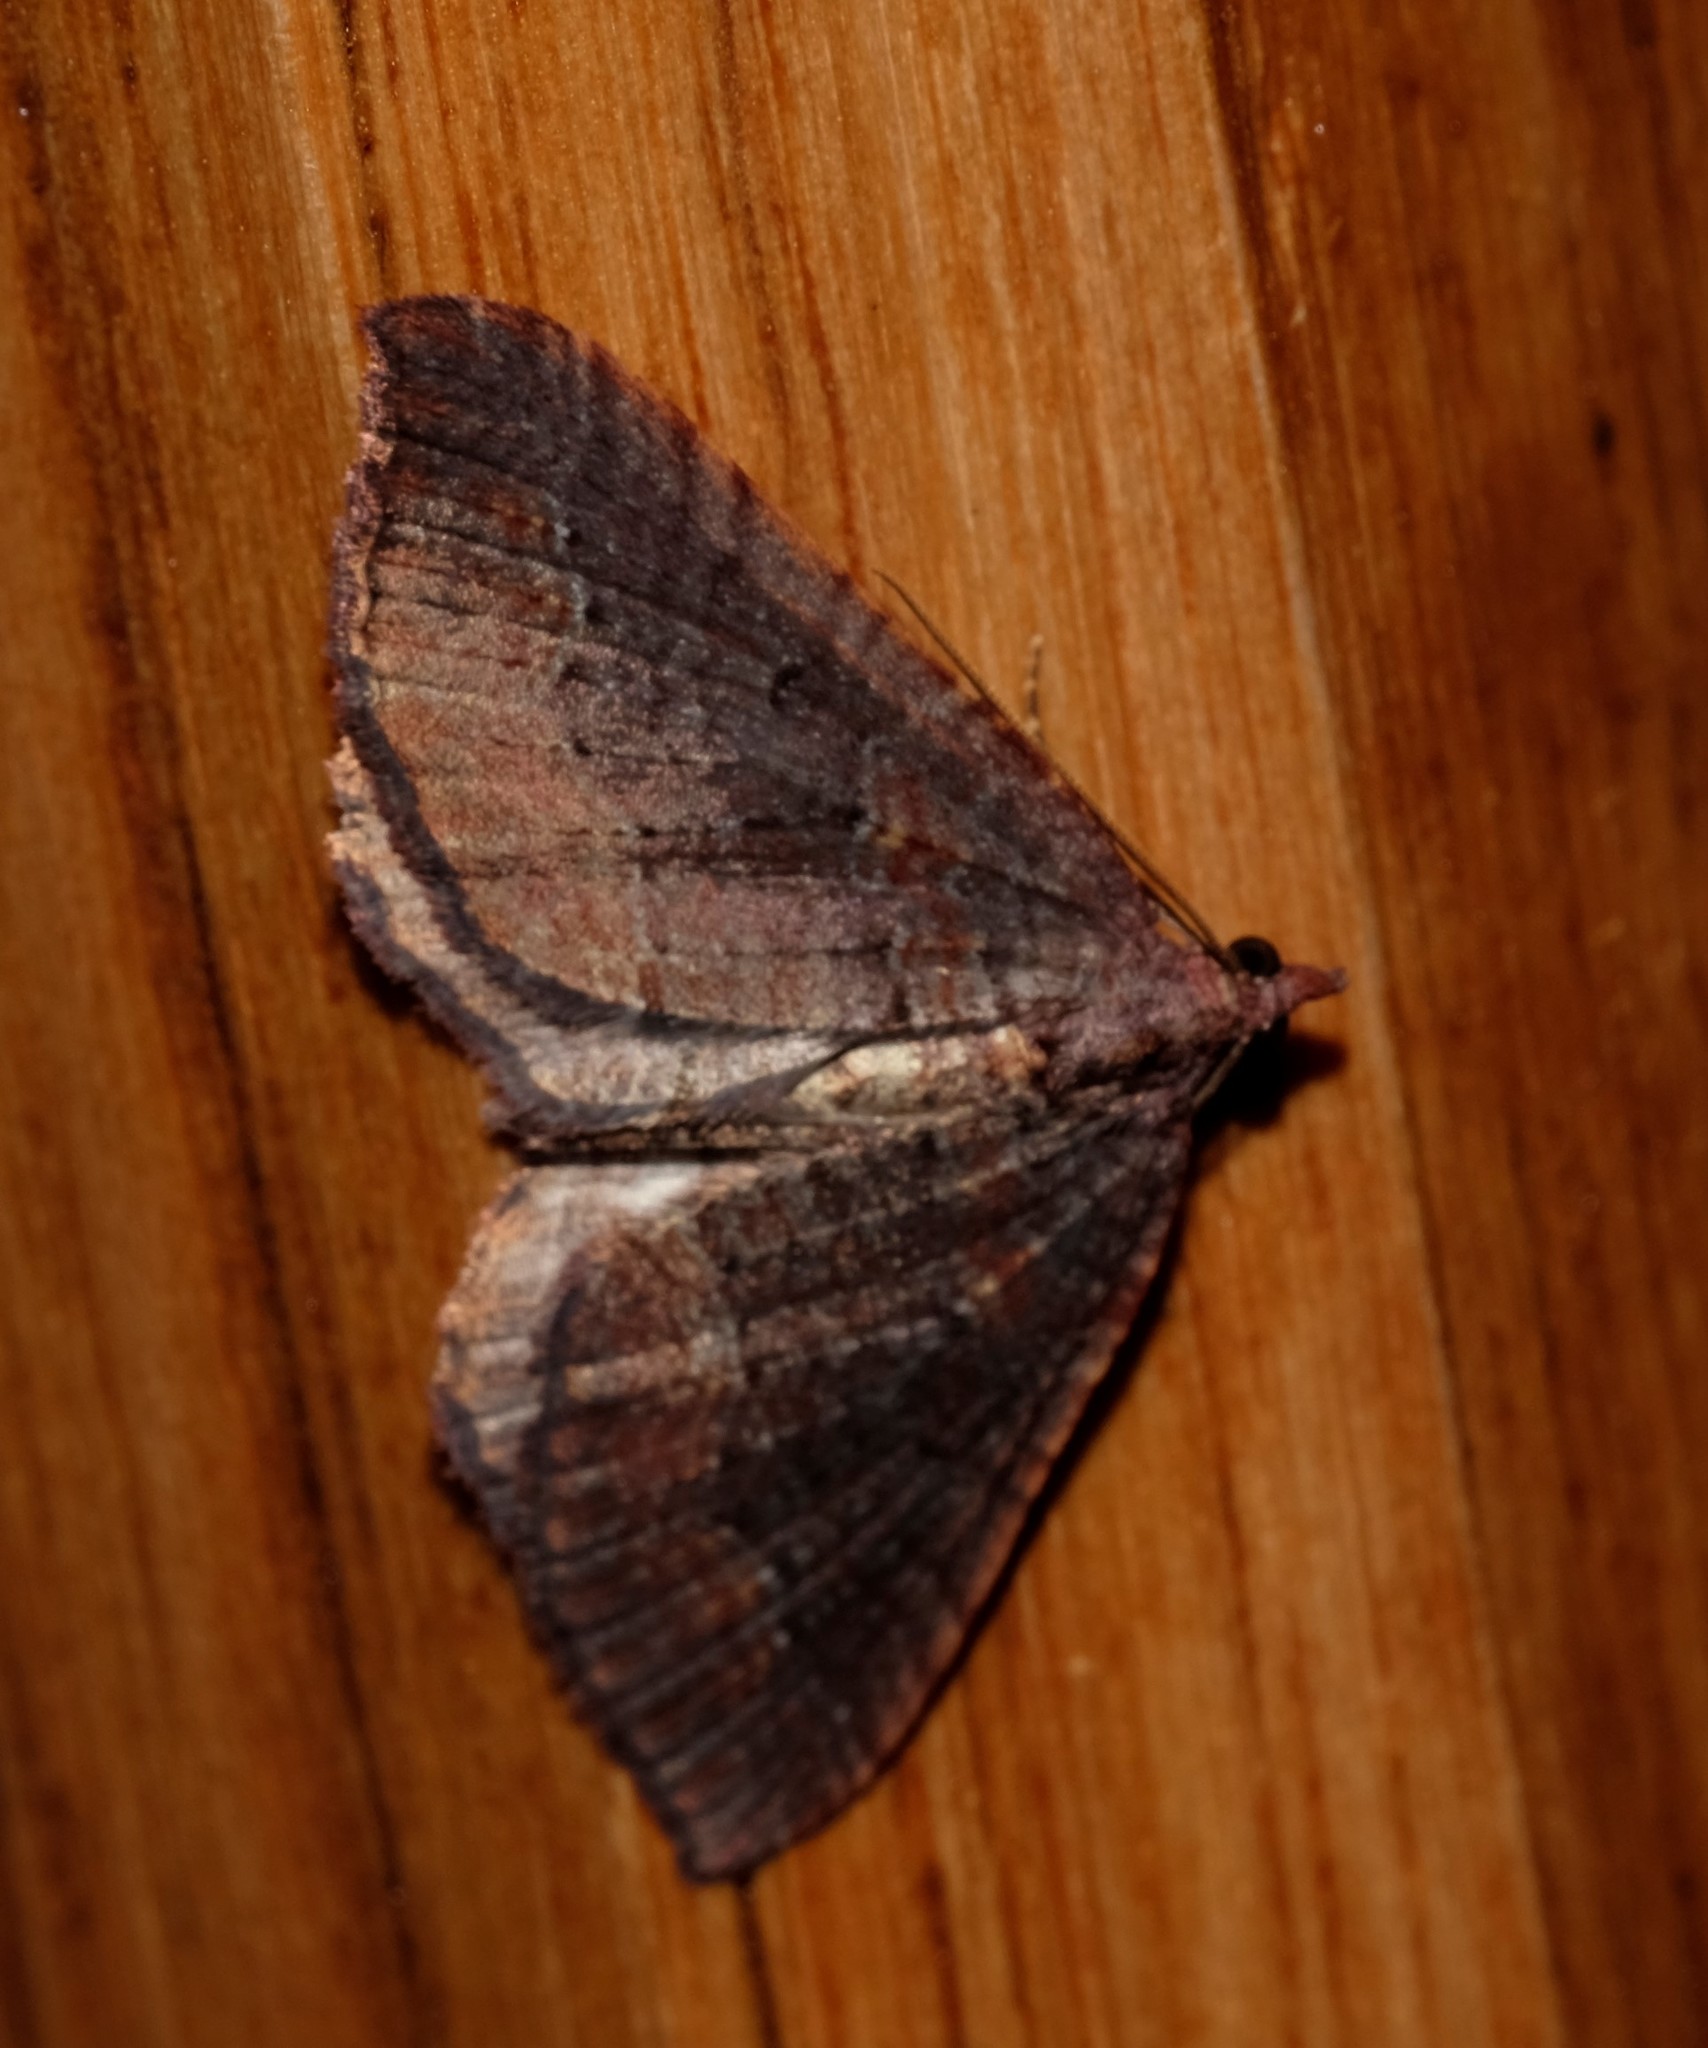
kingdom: Animalia
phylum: Arthropoda
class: Insecta
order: Lepidoptera
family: Geometridae
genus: Chrysolarentia
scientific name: Chrysolarentia trygodes
